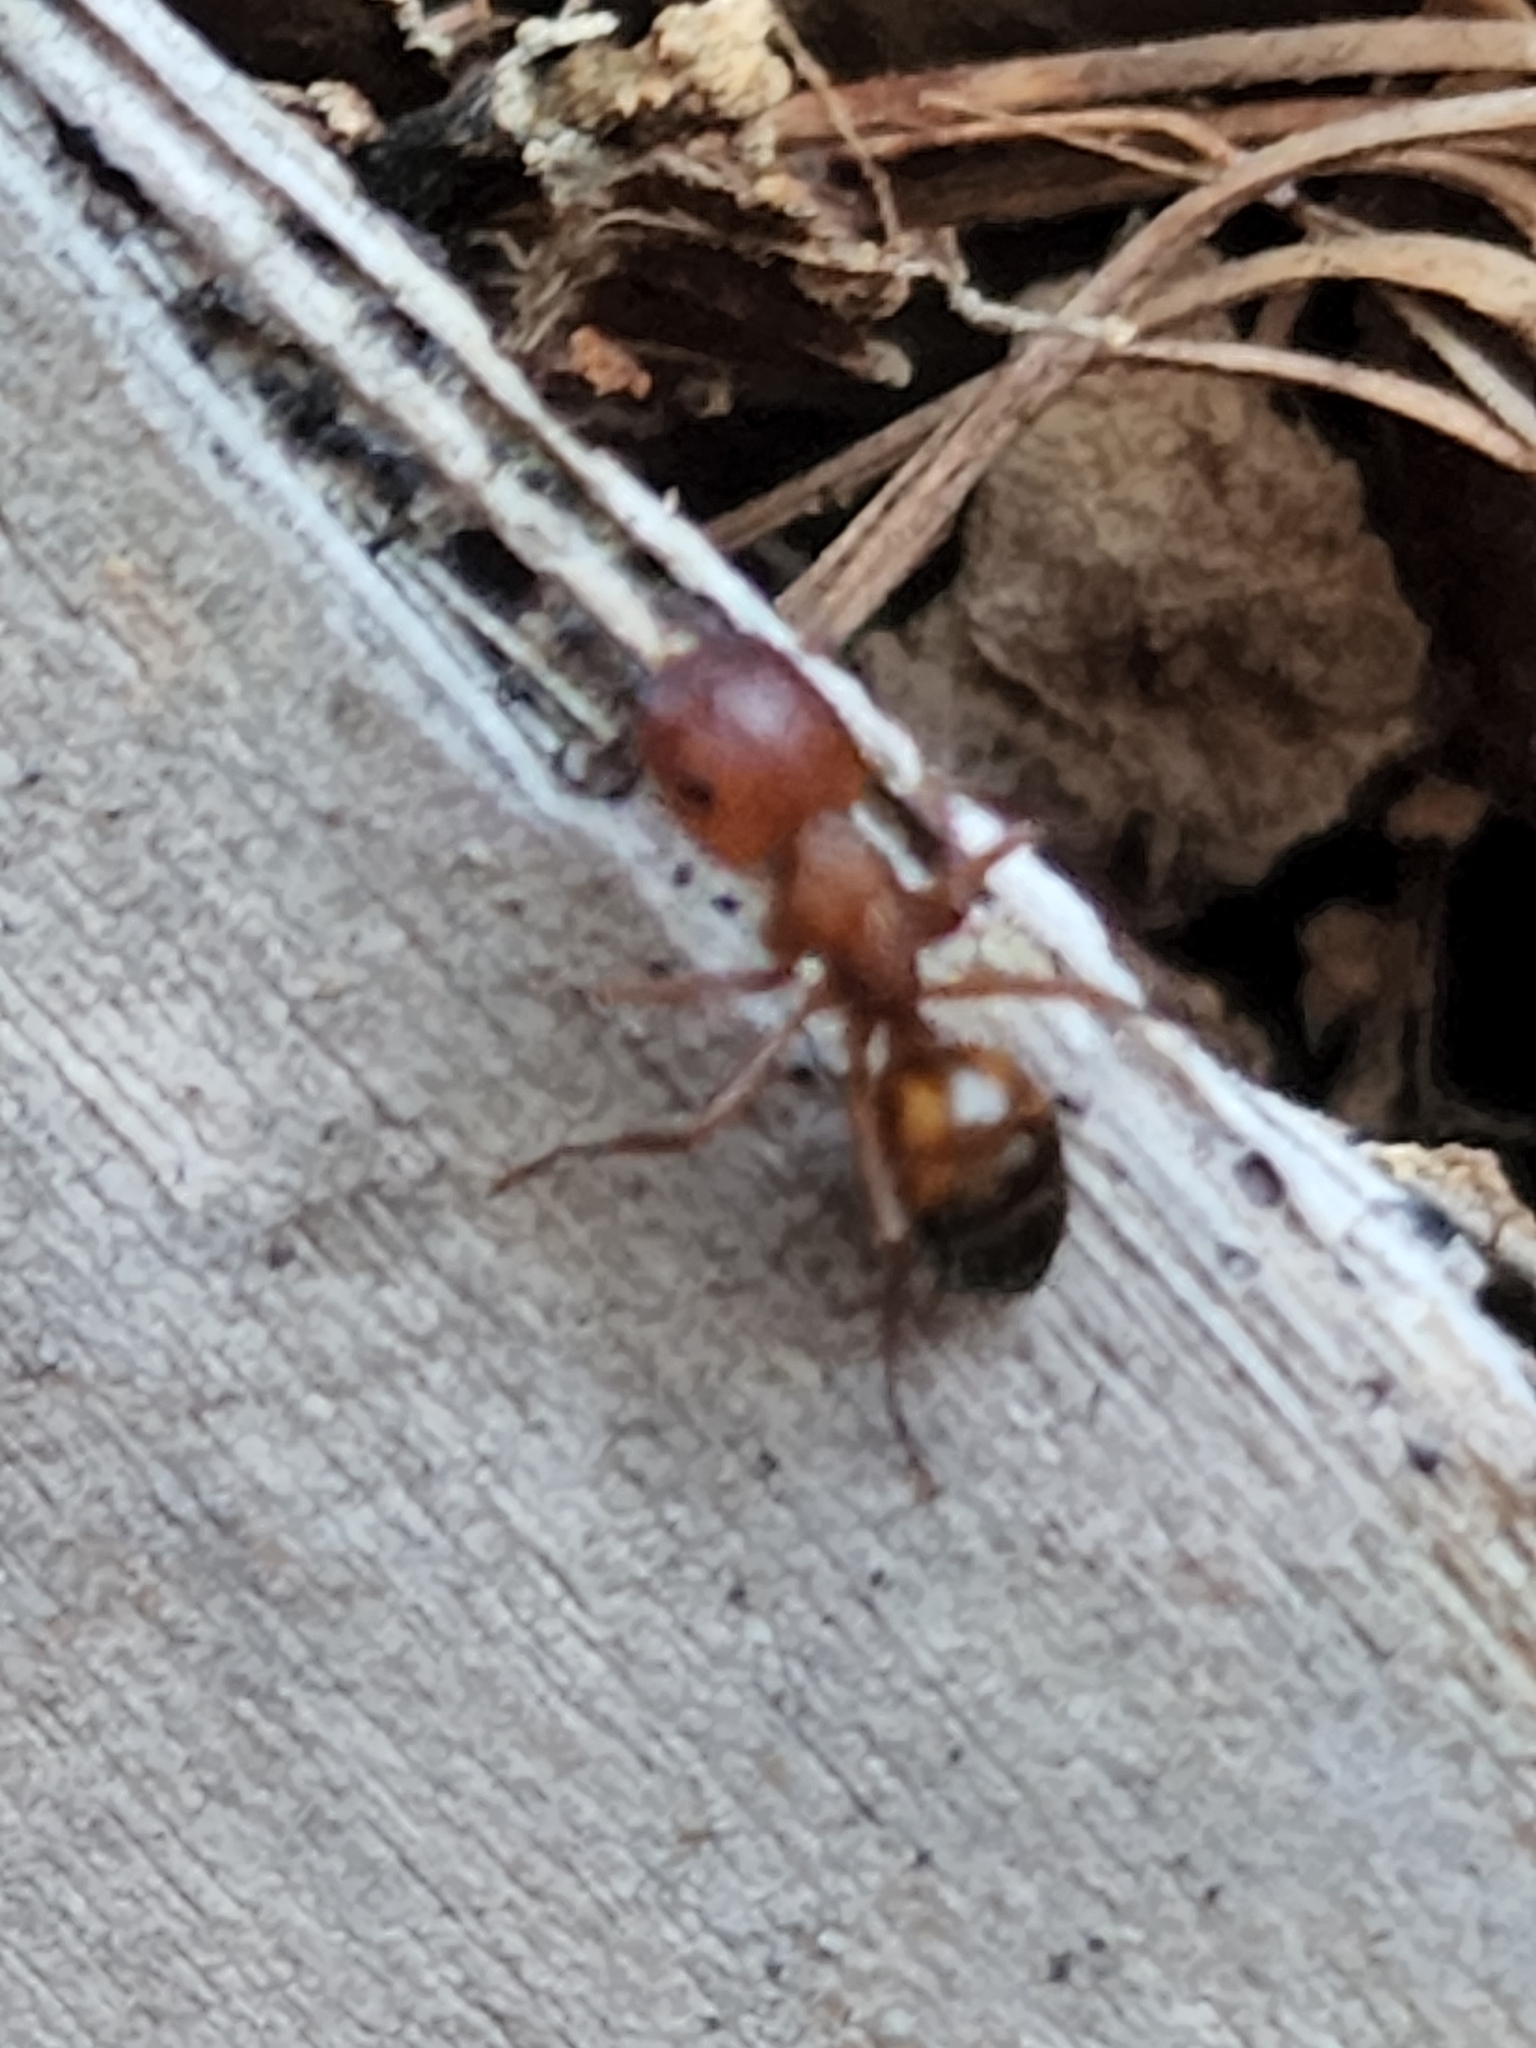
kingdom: Animalia
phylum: Arthropoda
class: Insecta
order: Hymenoptera
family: Formicidae
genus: Camponotus
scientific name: Camponotus snellingi
